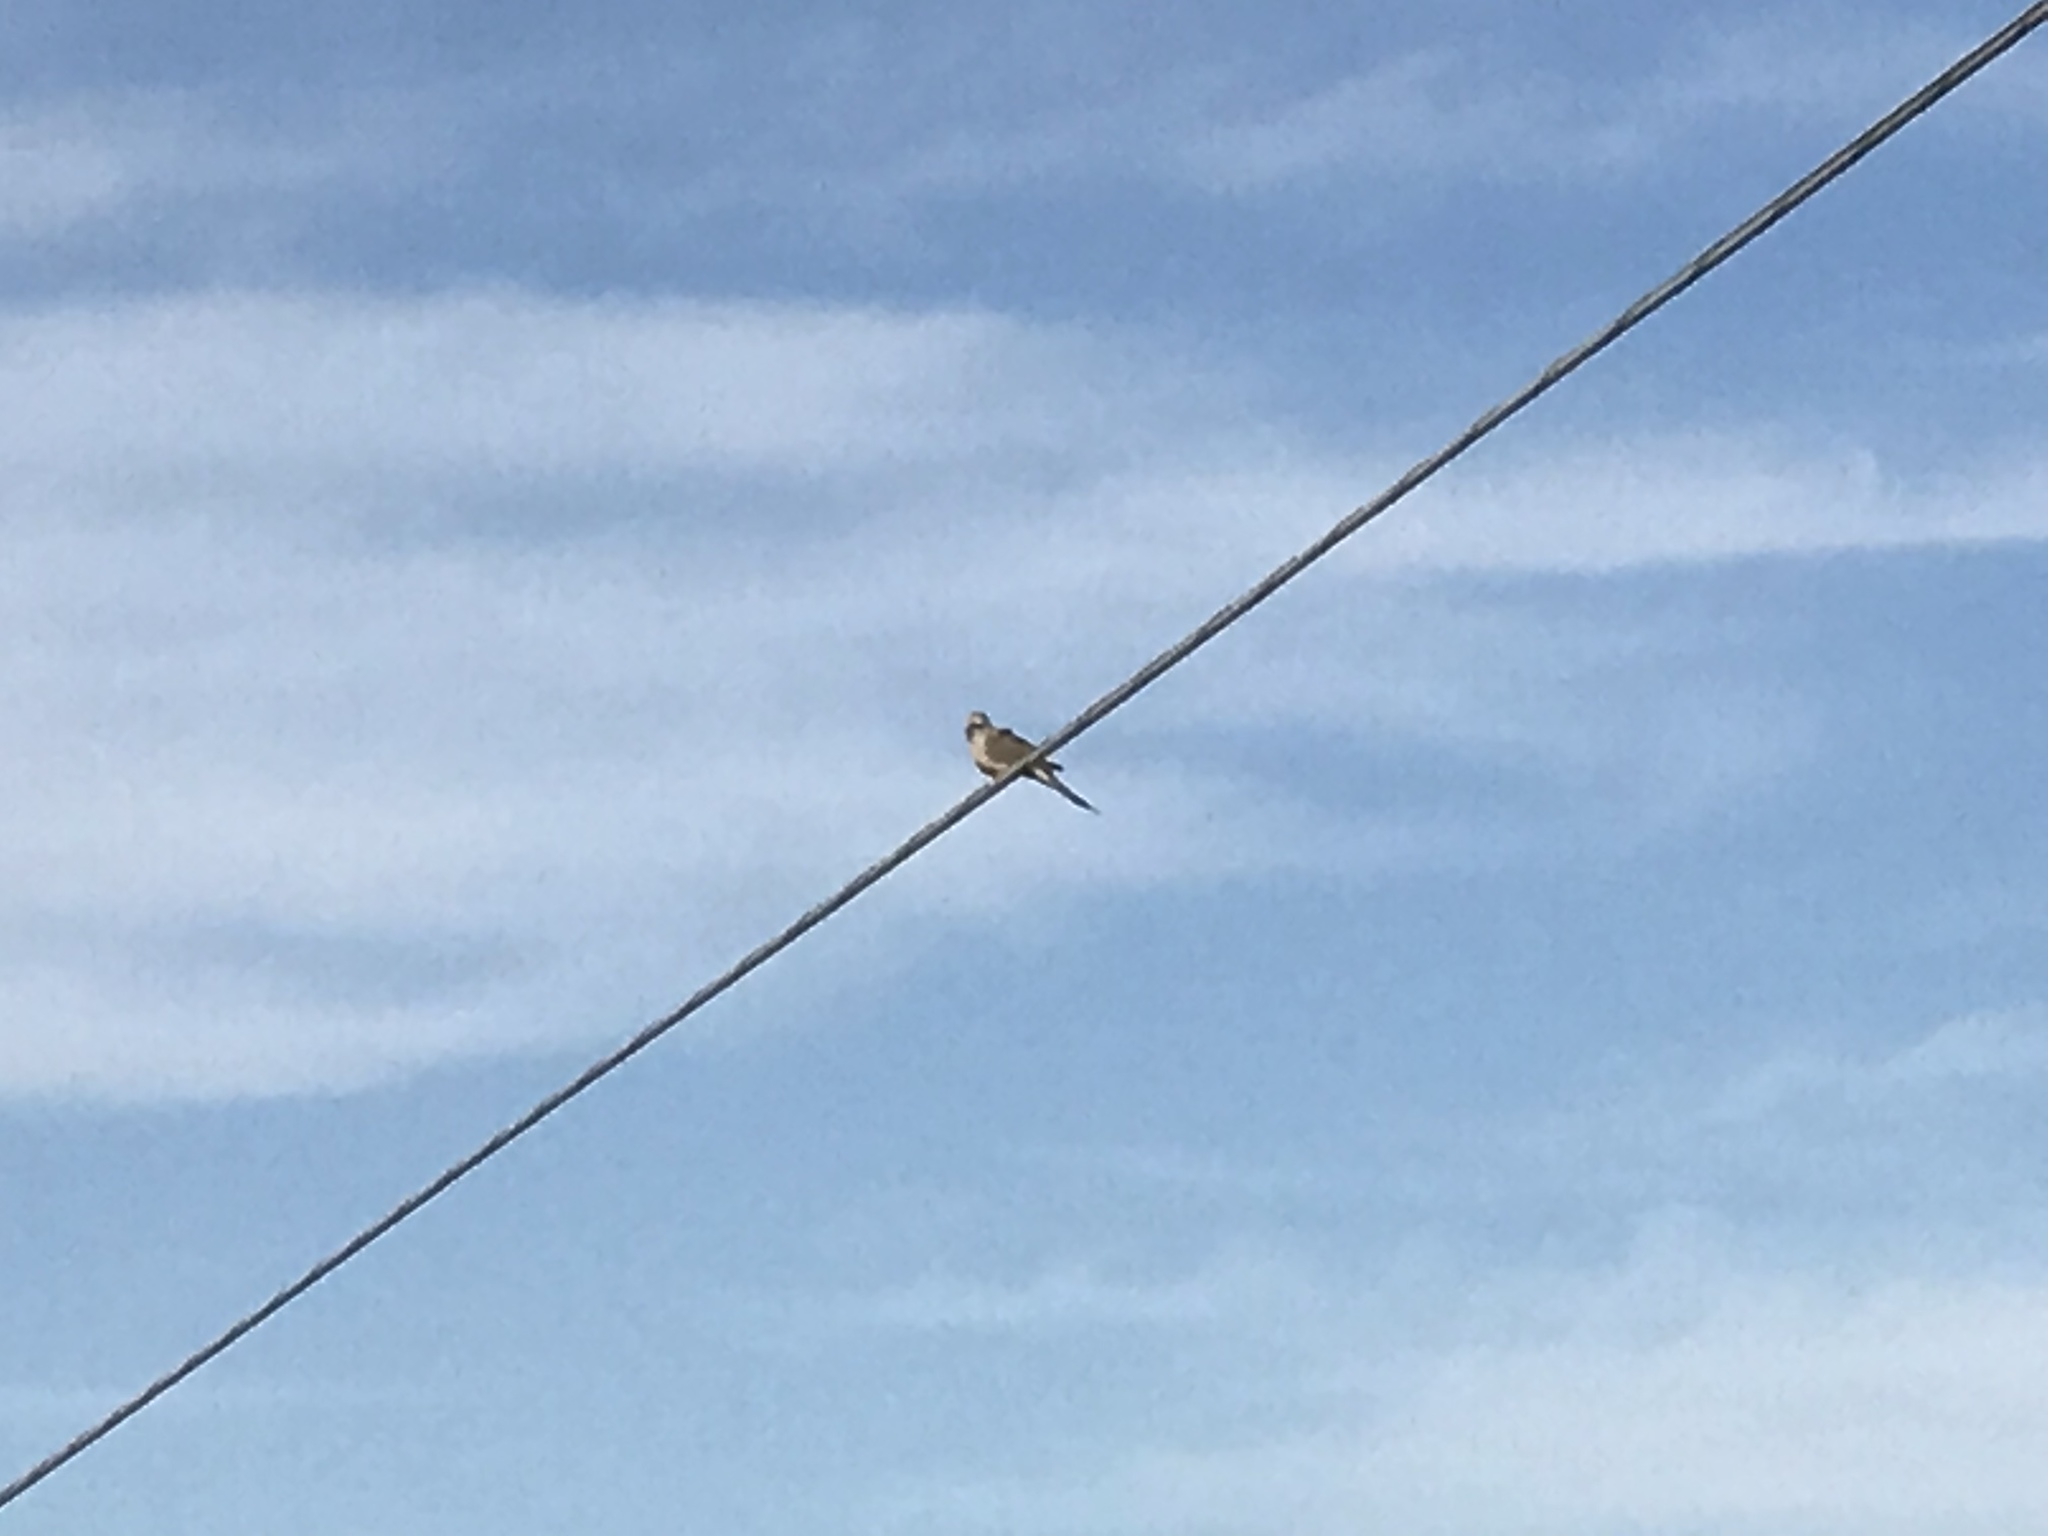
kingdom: Animalia
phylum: Chordata
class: Aves
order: Columbiformes
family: Columbidae
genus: Zenaida
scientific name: Zenaida macroura
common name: Mourning dove
